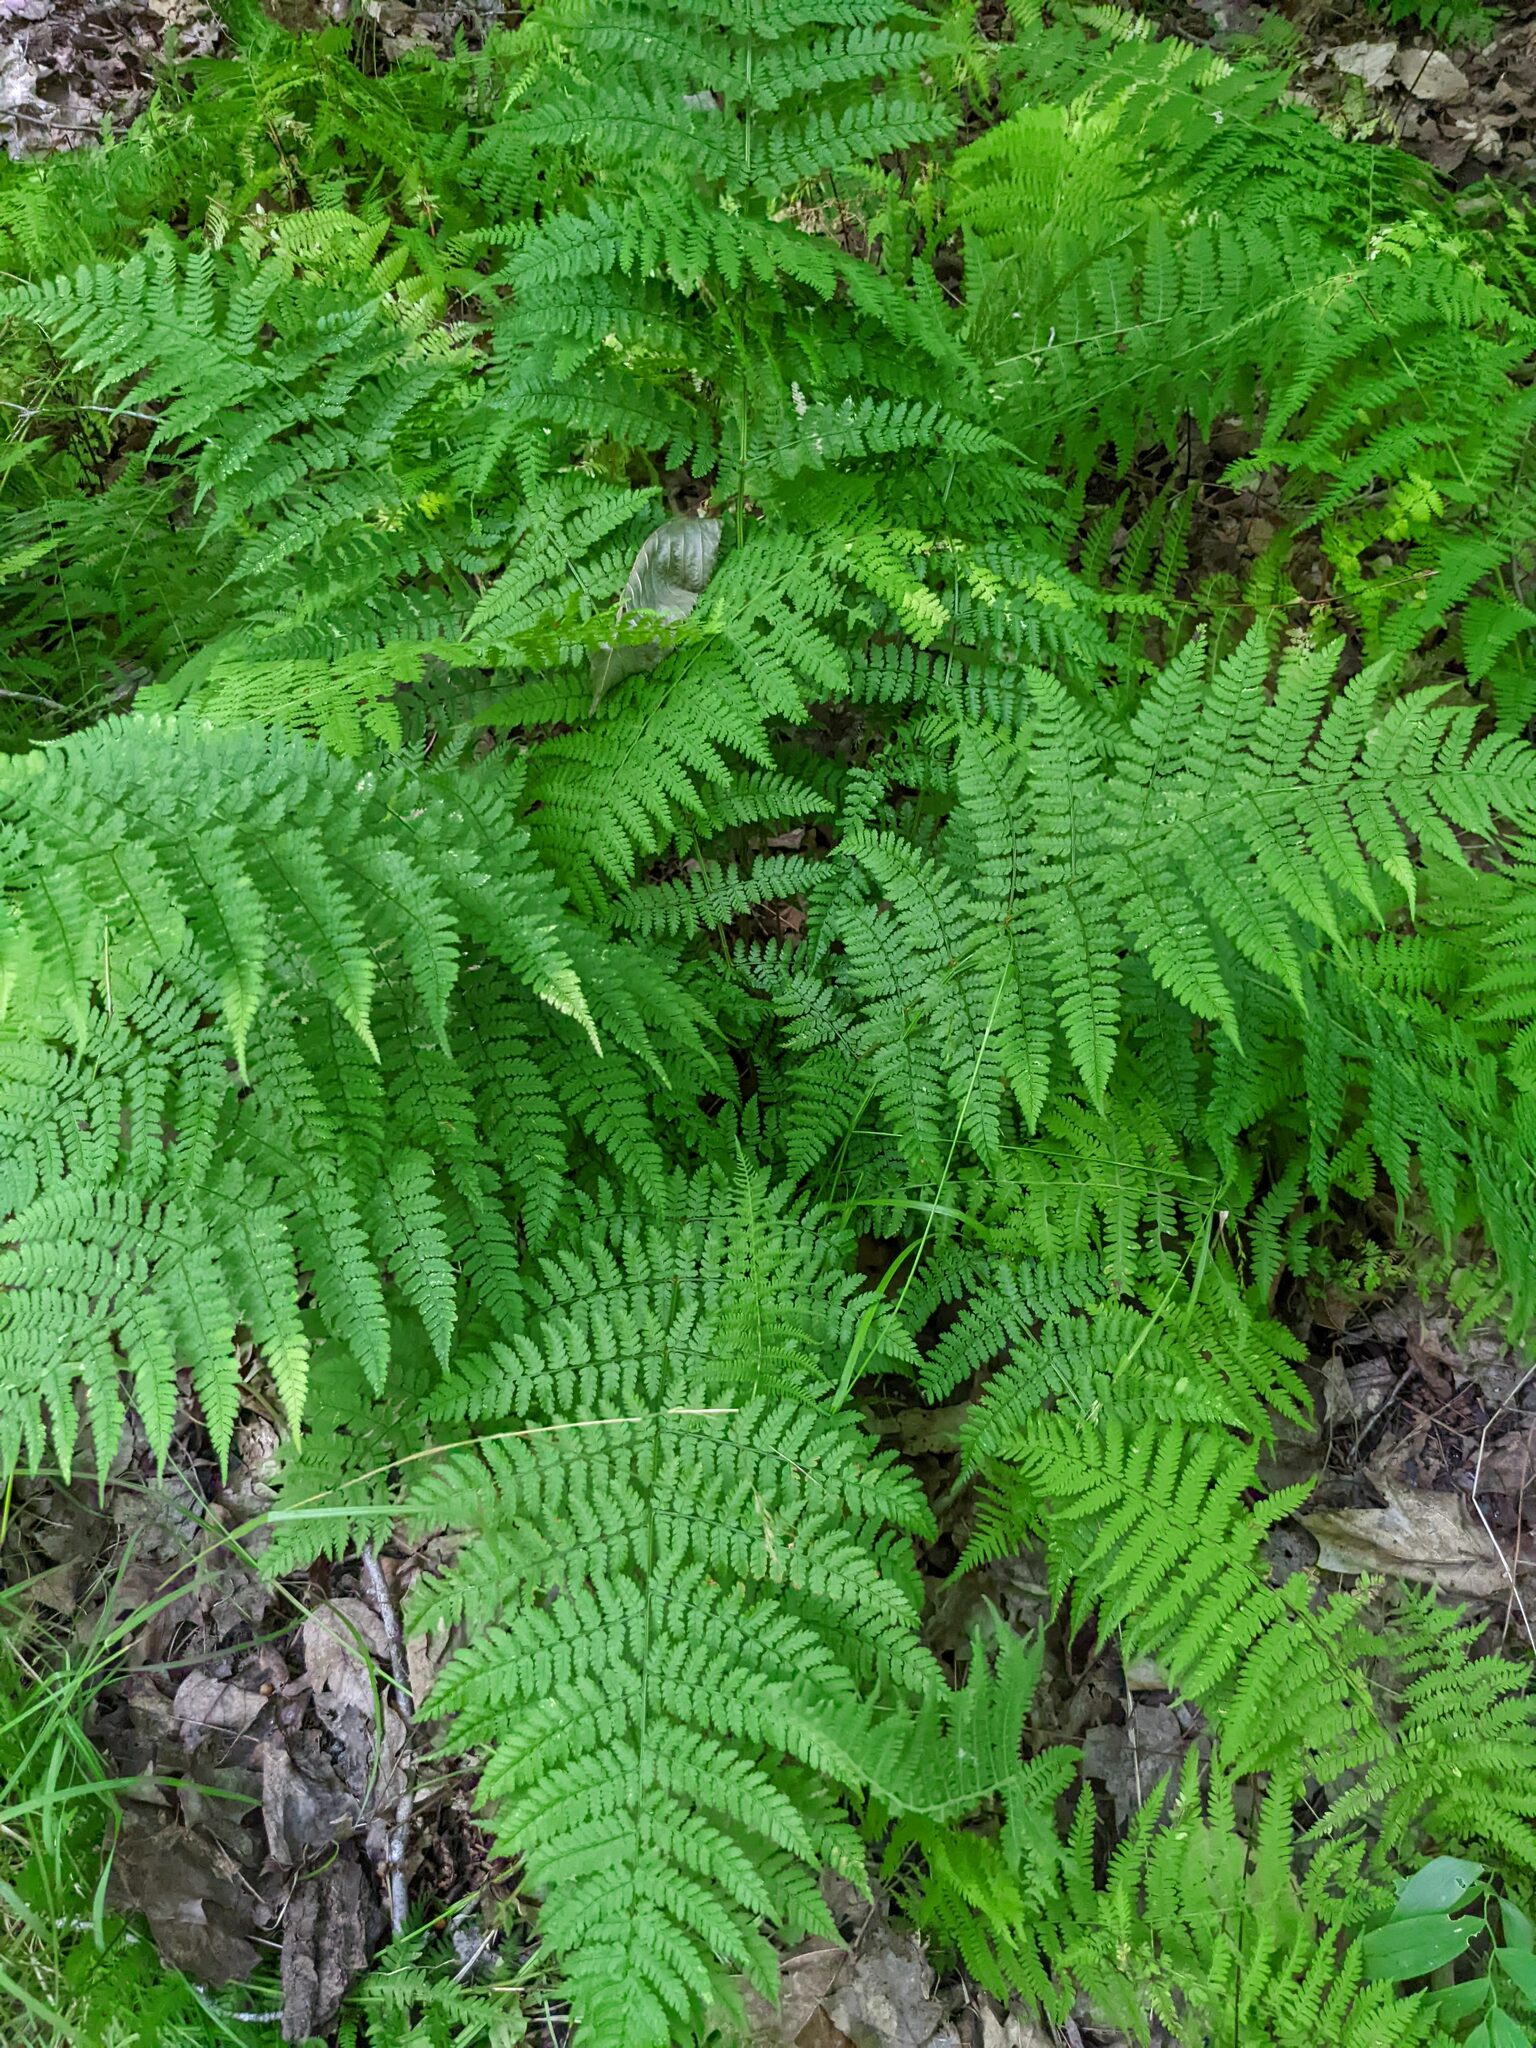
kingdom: Plantae
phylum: Tracheophyta
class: Polypodiopsida
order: Polypodiales
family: Dryopteridaceae
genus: Dryopteris
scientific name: Dryopteris intermedia
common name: Evergreen wood fern
